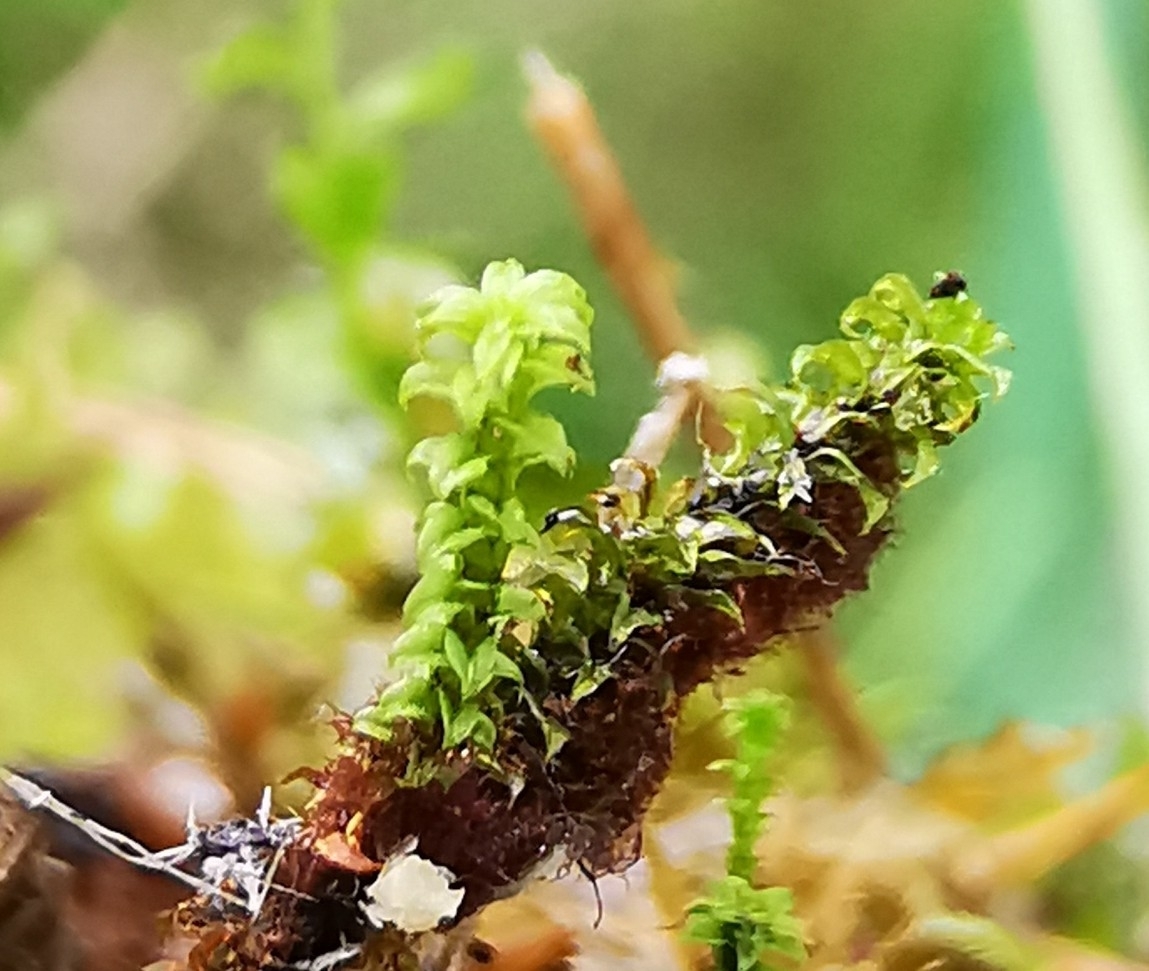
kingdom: Plantae
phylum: Bryophyta
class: Bryopsida
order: Splachnales
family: Meesiaceae
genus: Paludella
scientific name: Paludella squarrosa
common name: Tufted fen moss
